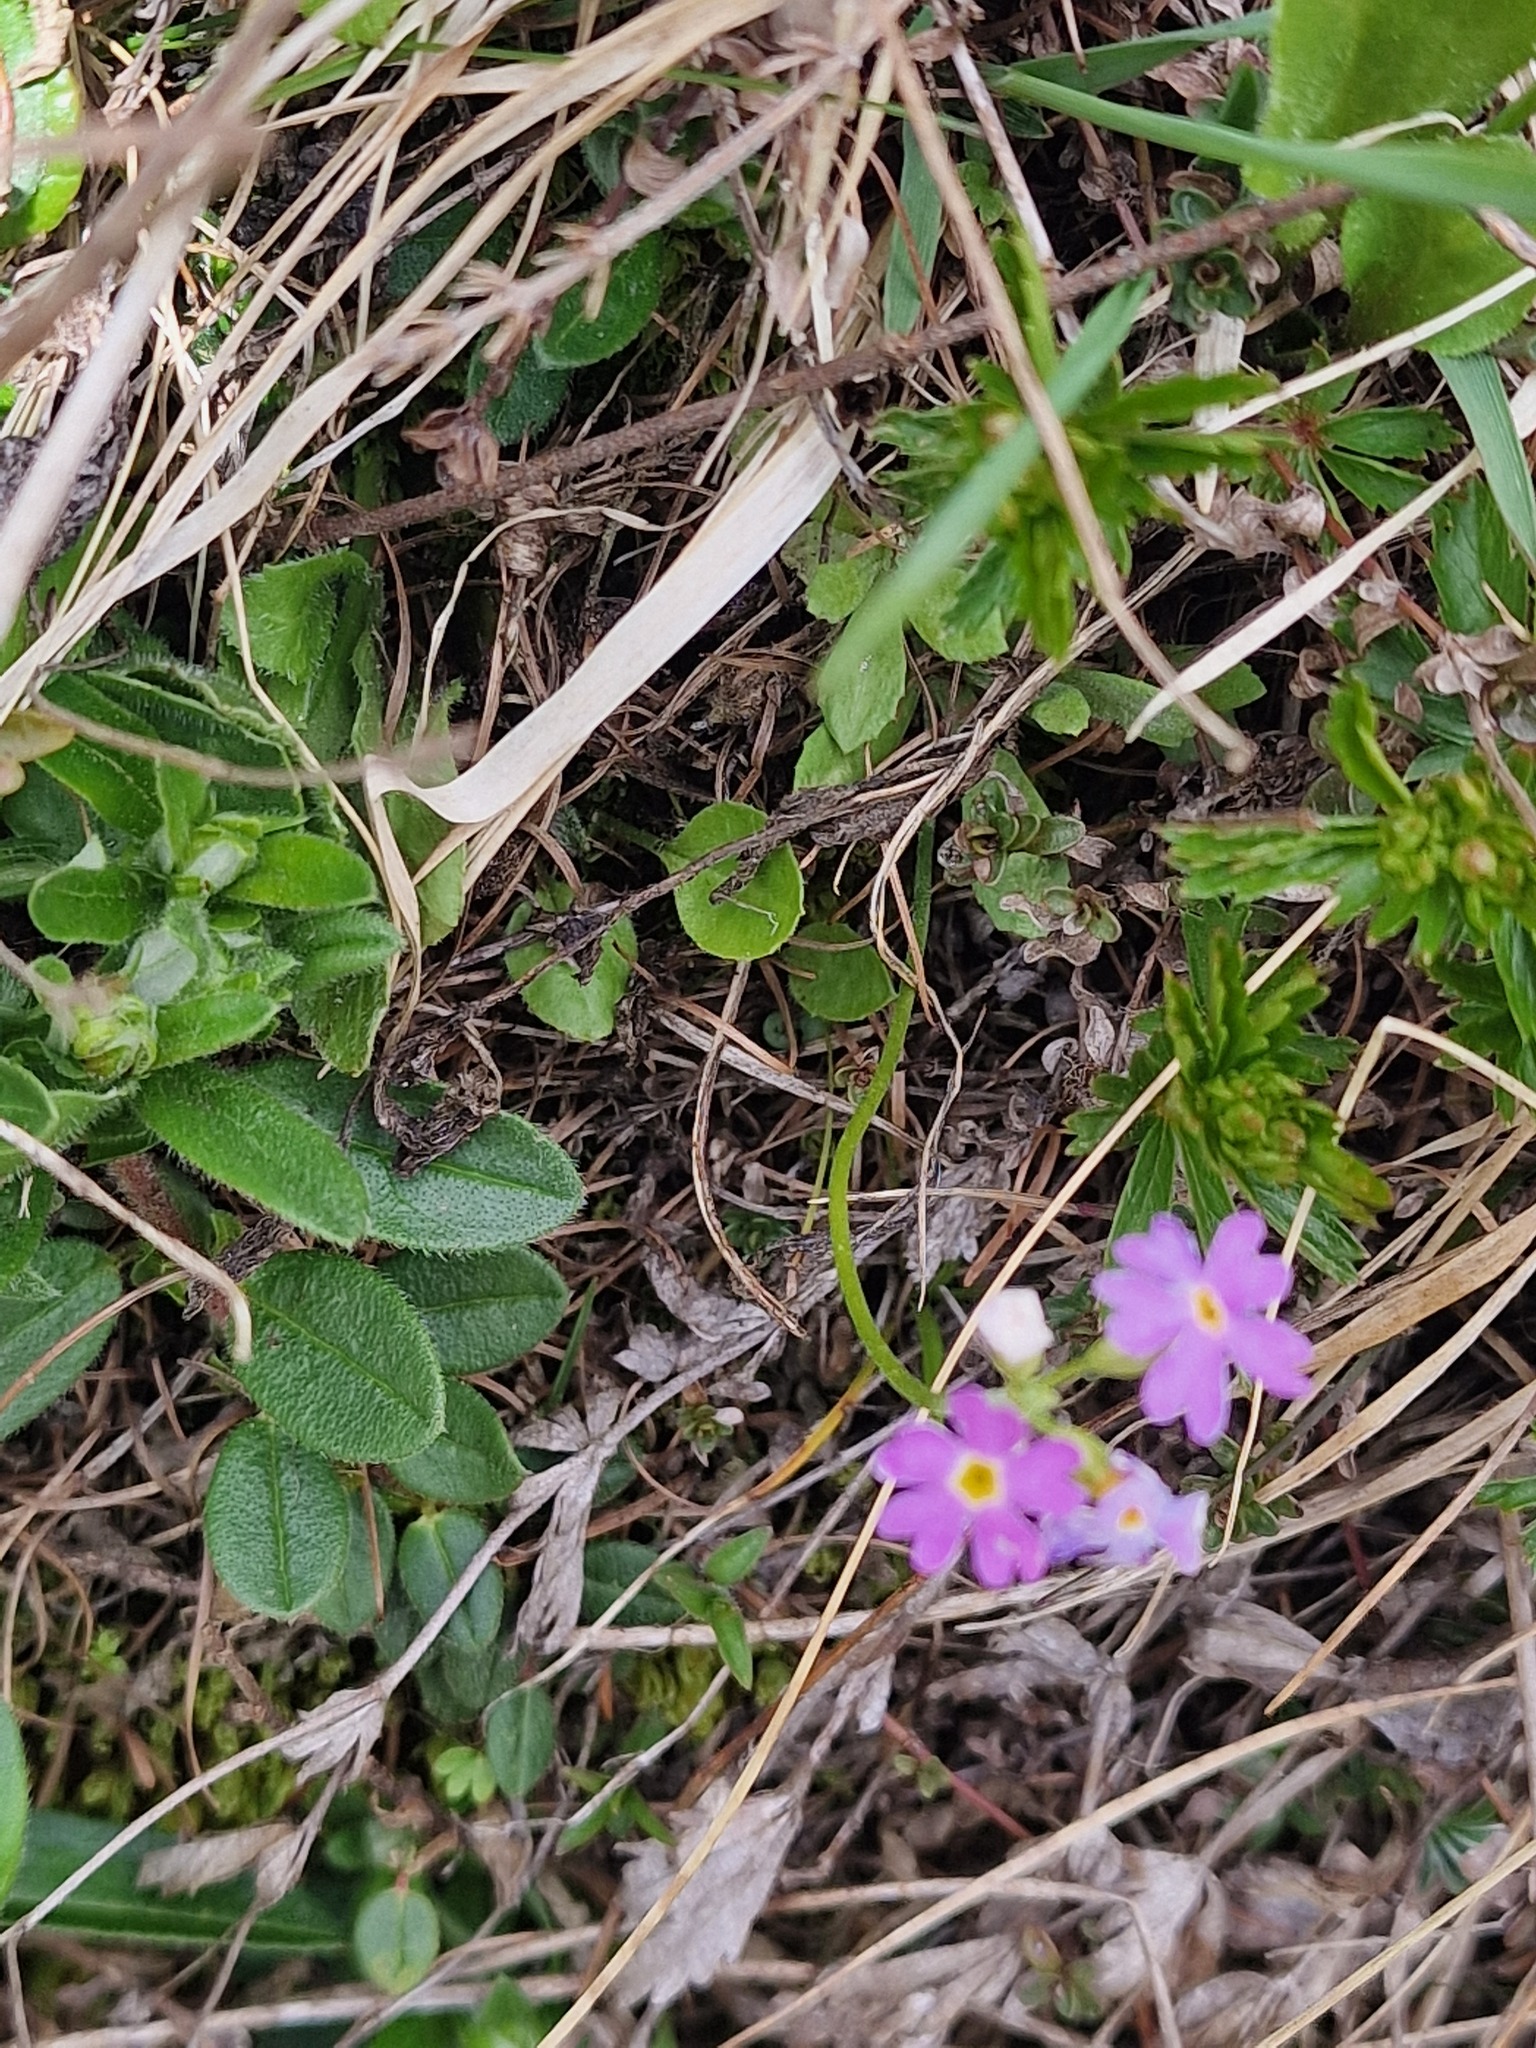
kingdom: Plantae
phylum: Tracheophyta
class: Magnoliopsida
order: Ericales
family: Primulaceae
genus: Primula
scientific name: Primula farinosa
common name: Bird's-eye primrose
